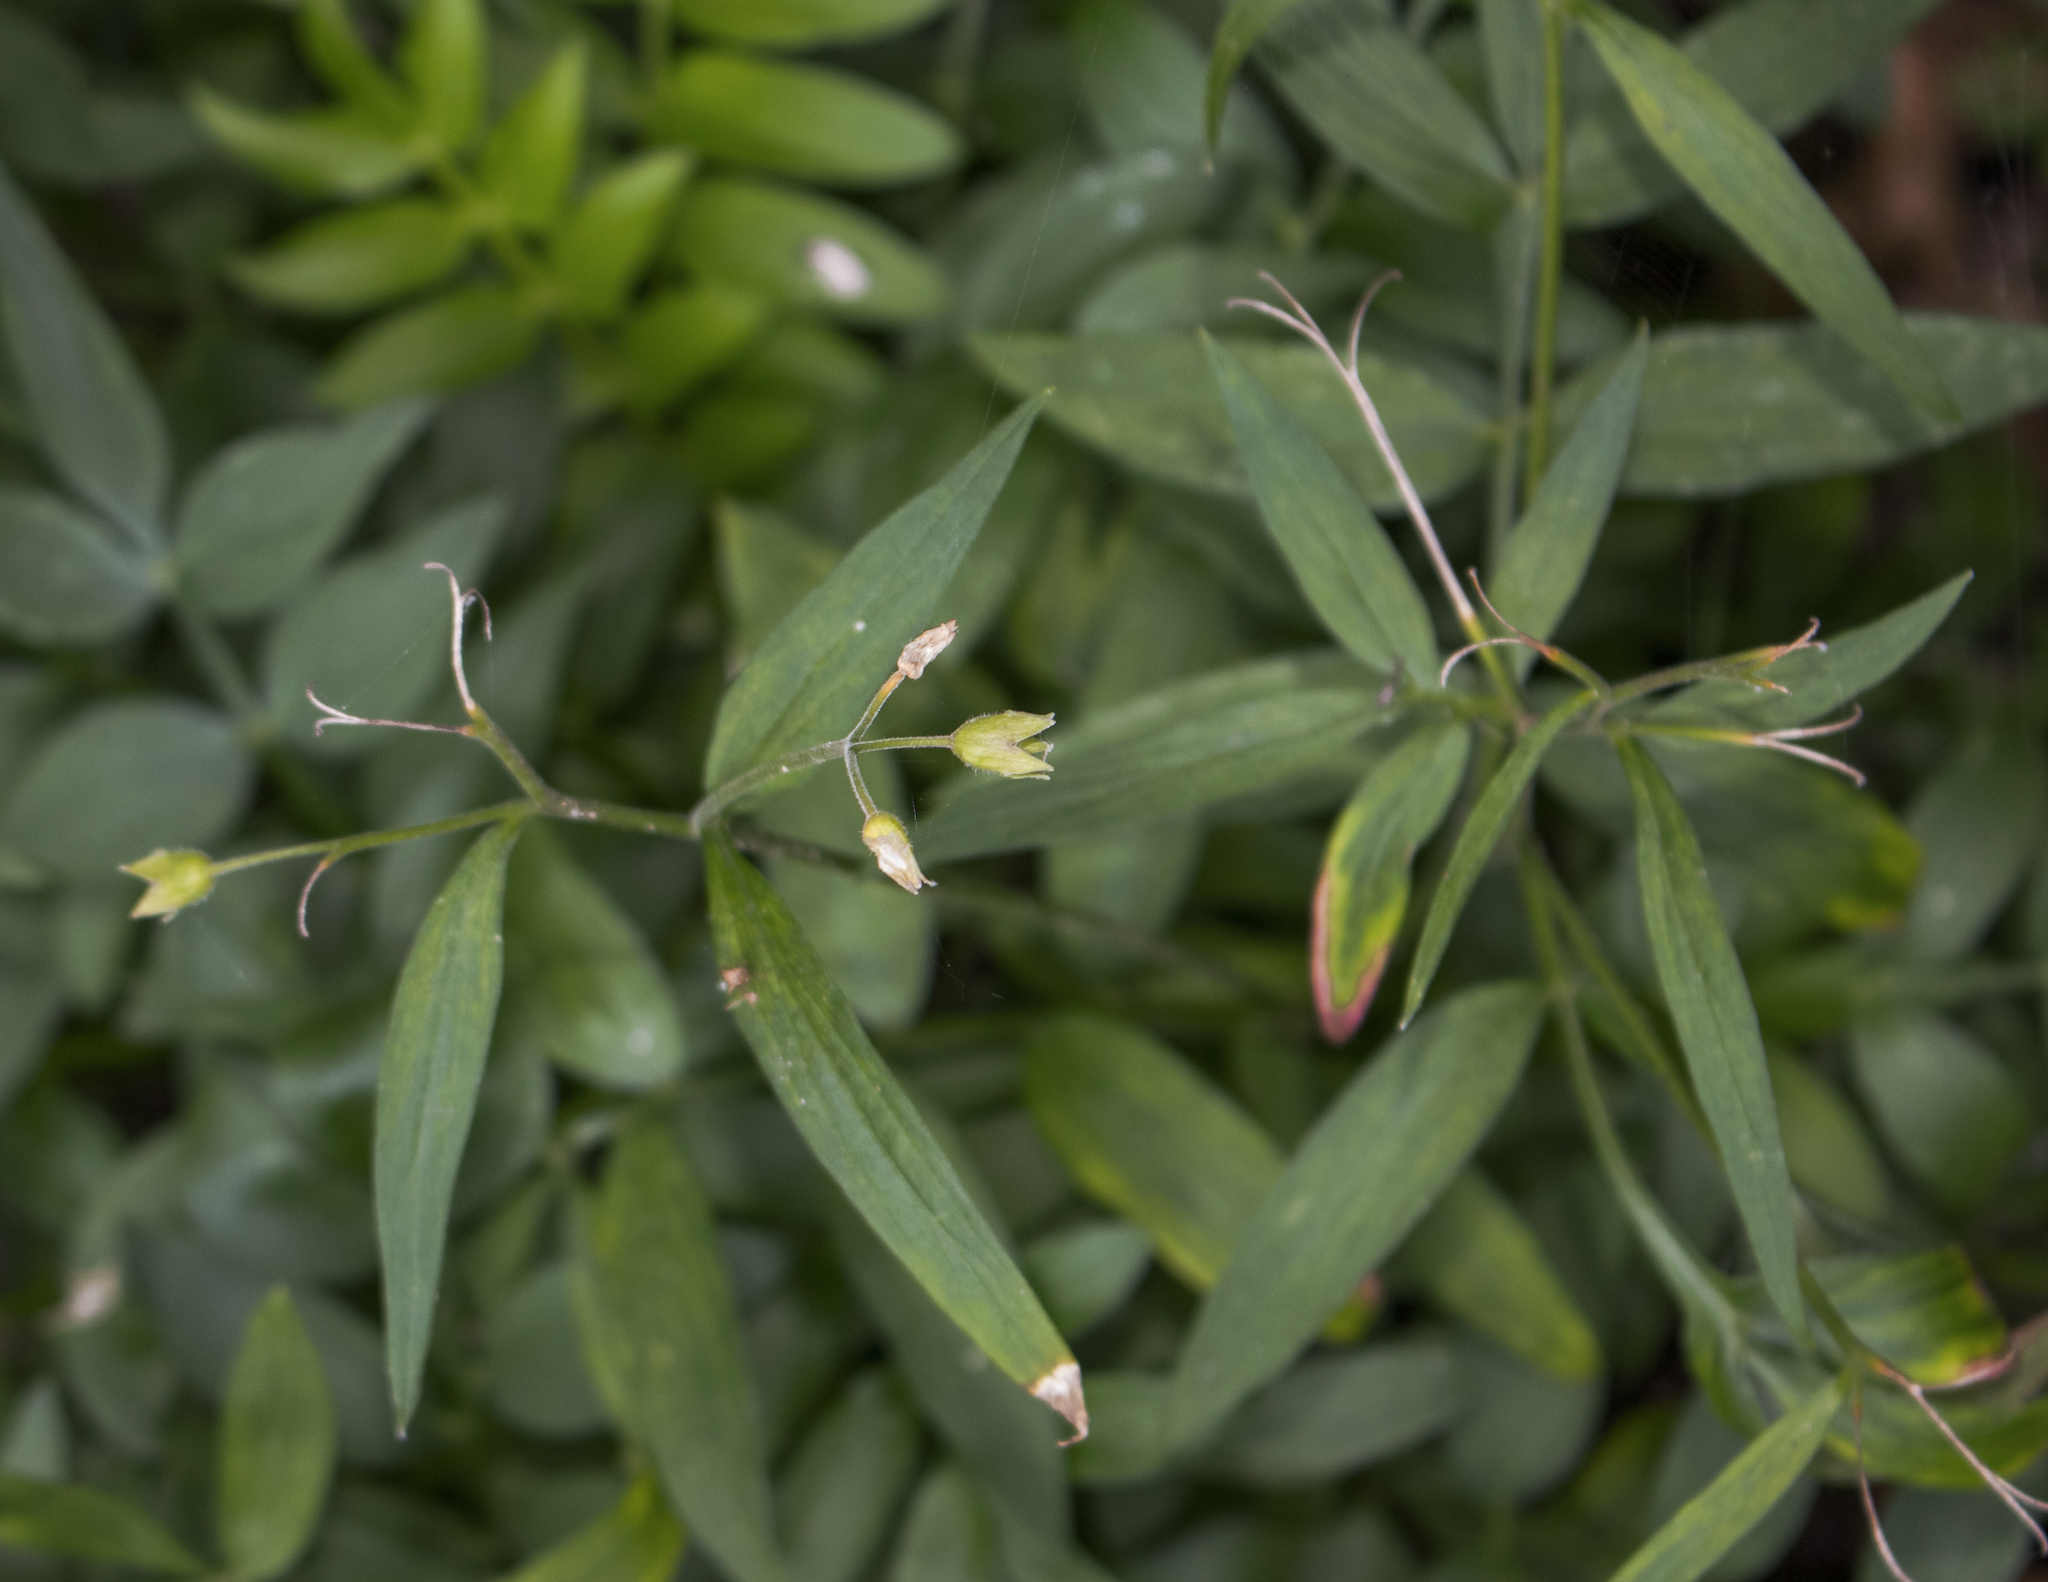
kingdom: Plantae
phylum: Tracheophyta
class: Magnoliopsida
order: Ericales
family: Polemoniaceae
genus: Polemonium
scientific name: Polemonium reptans
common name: Creeping jacob's-ladder
